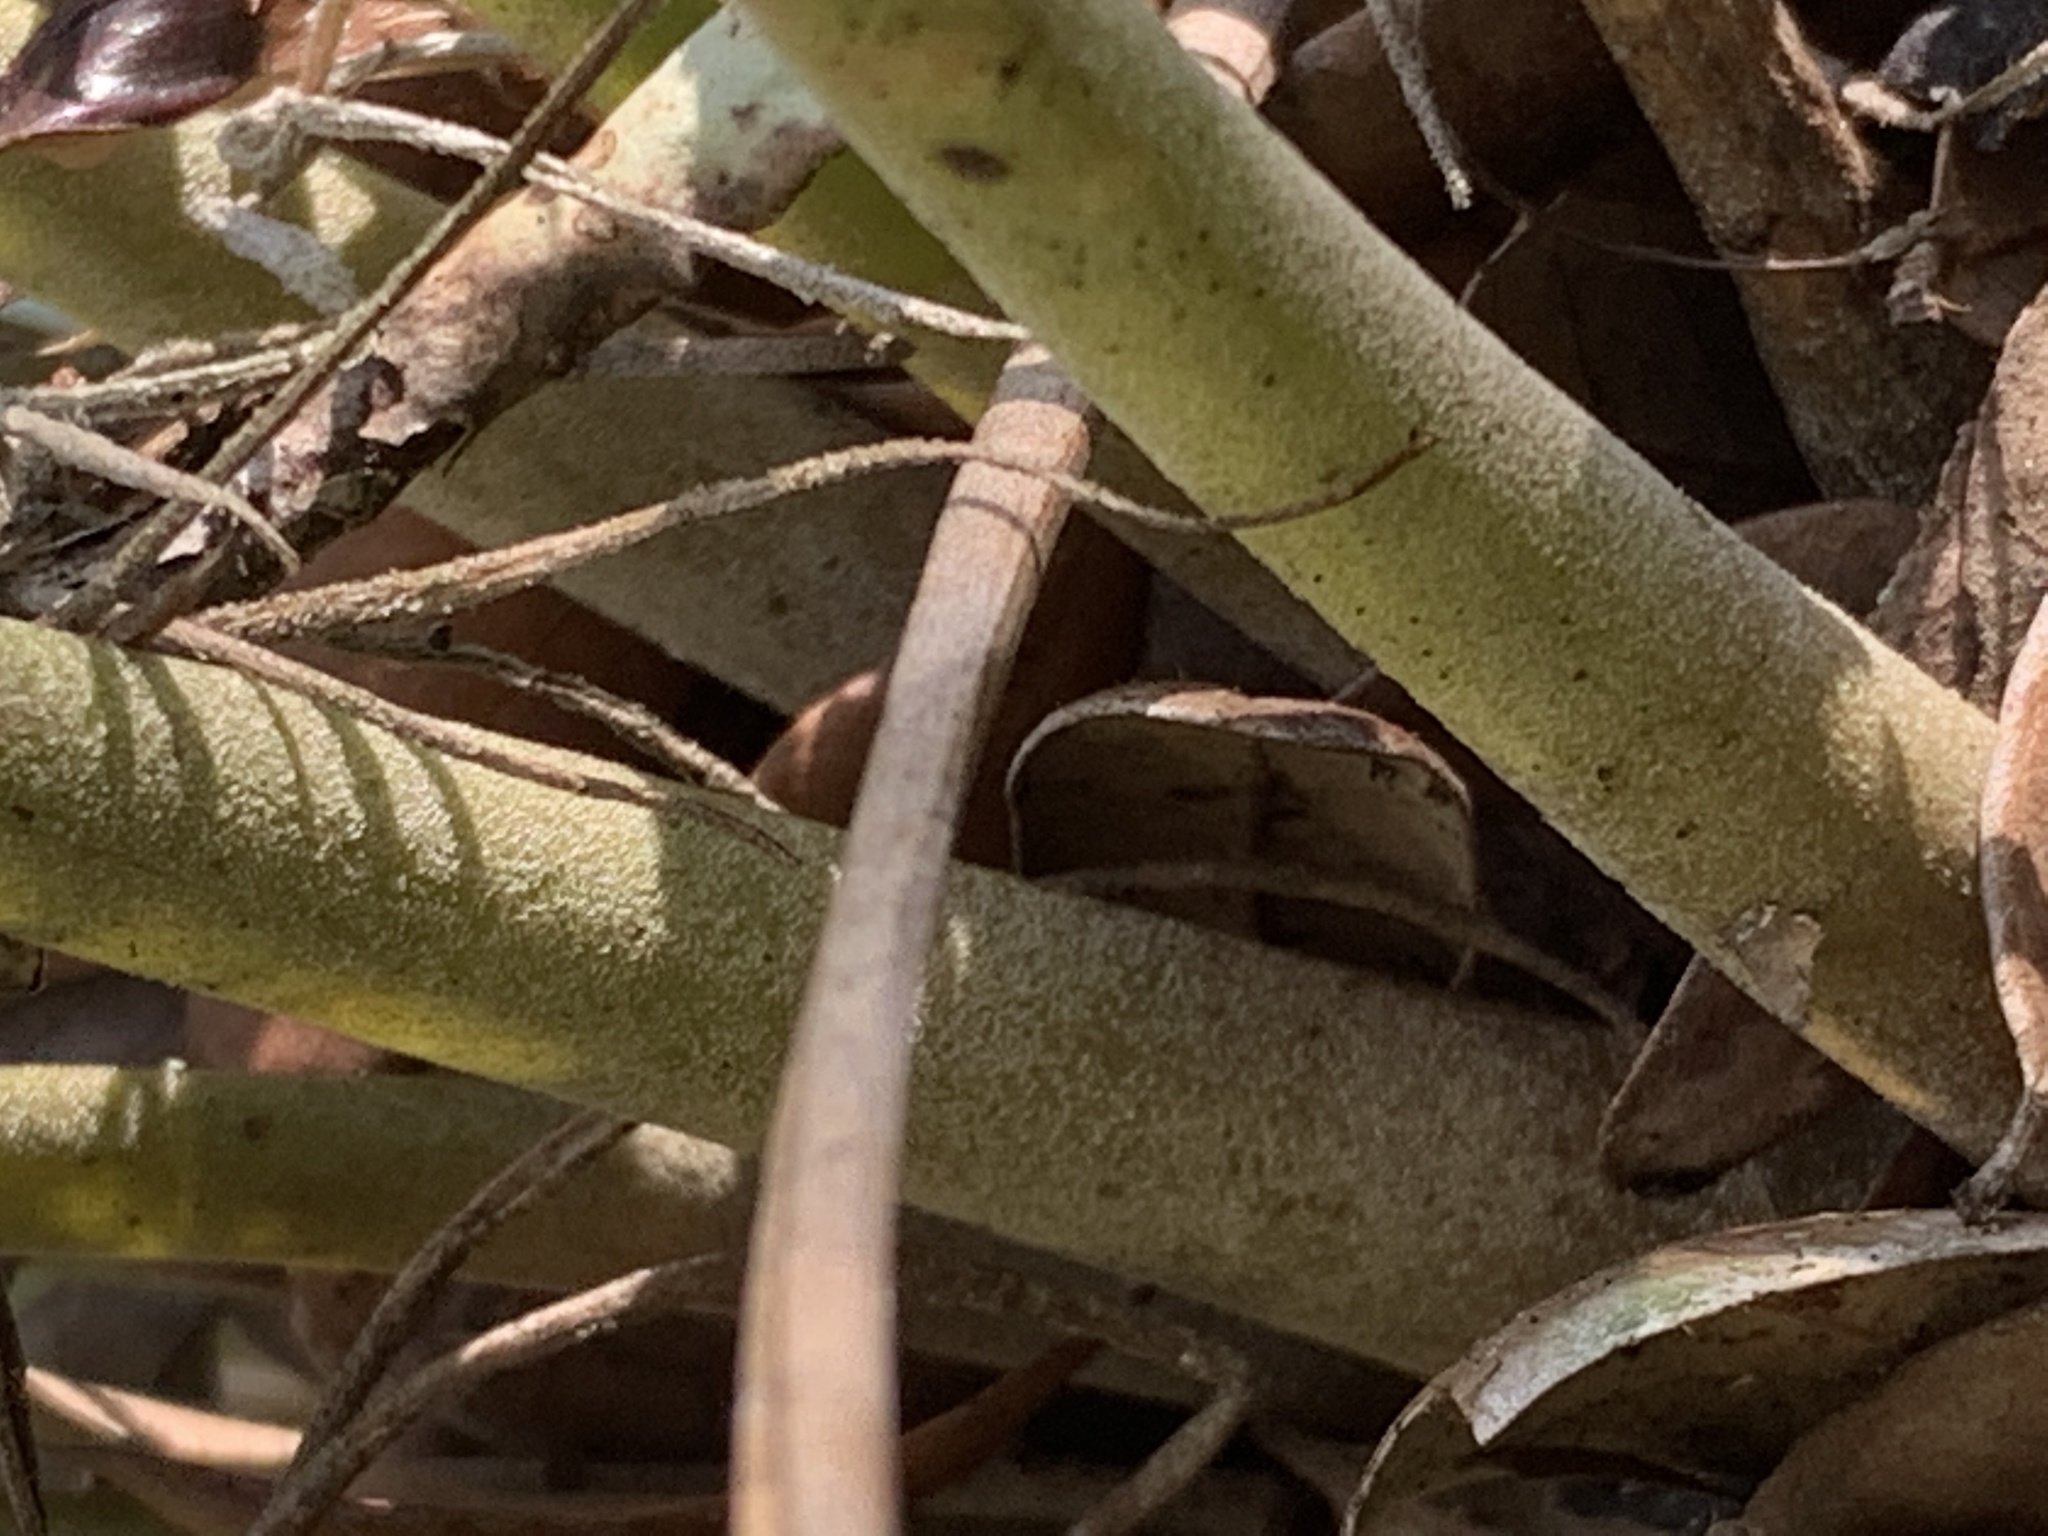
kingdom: Plantae
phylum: Tracheophyta
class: Liliopsida
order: Poales
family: Bromeliaceae
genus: Tillandsia
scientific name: Tillandsia floridana
